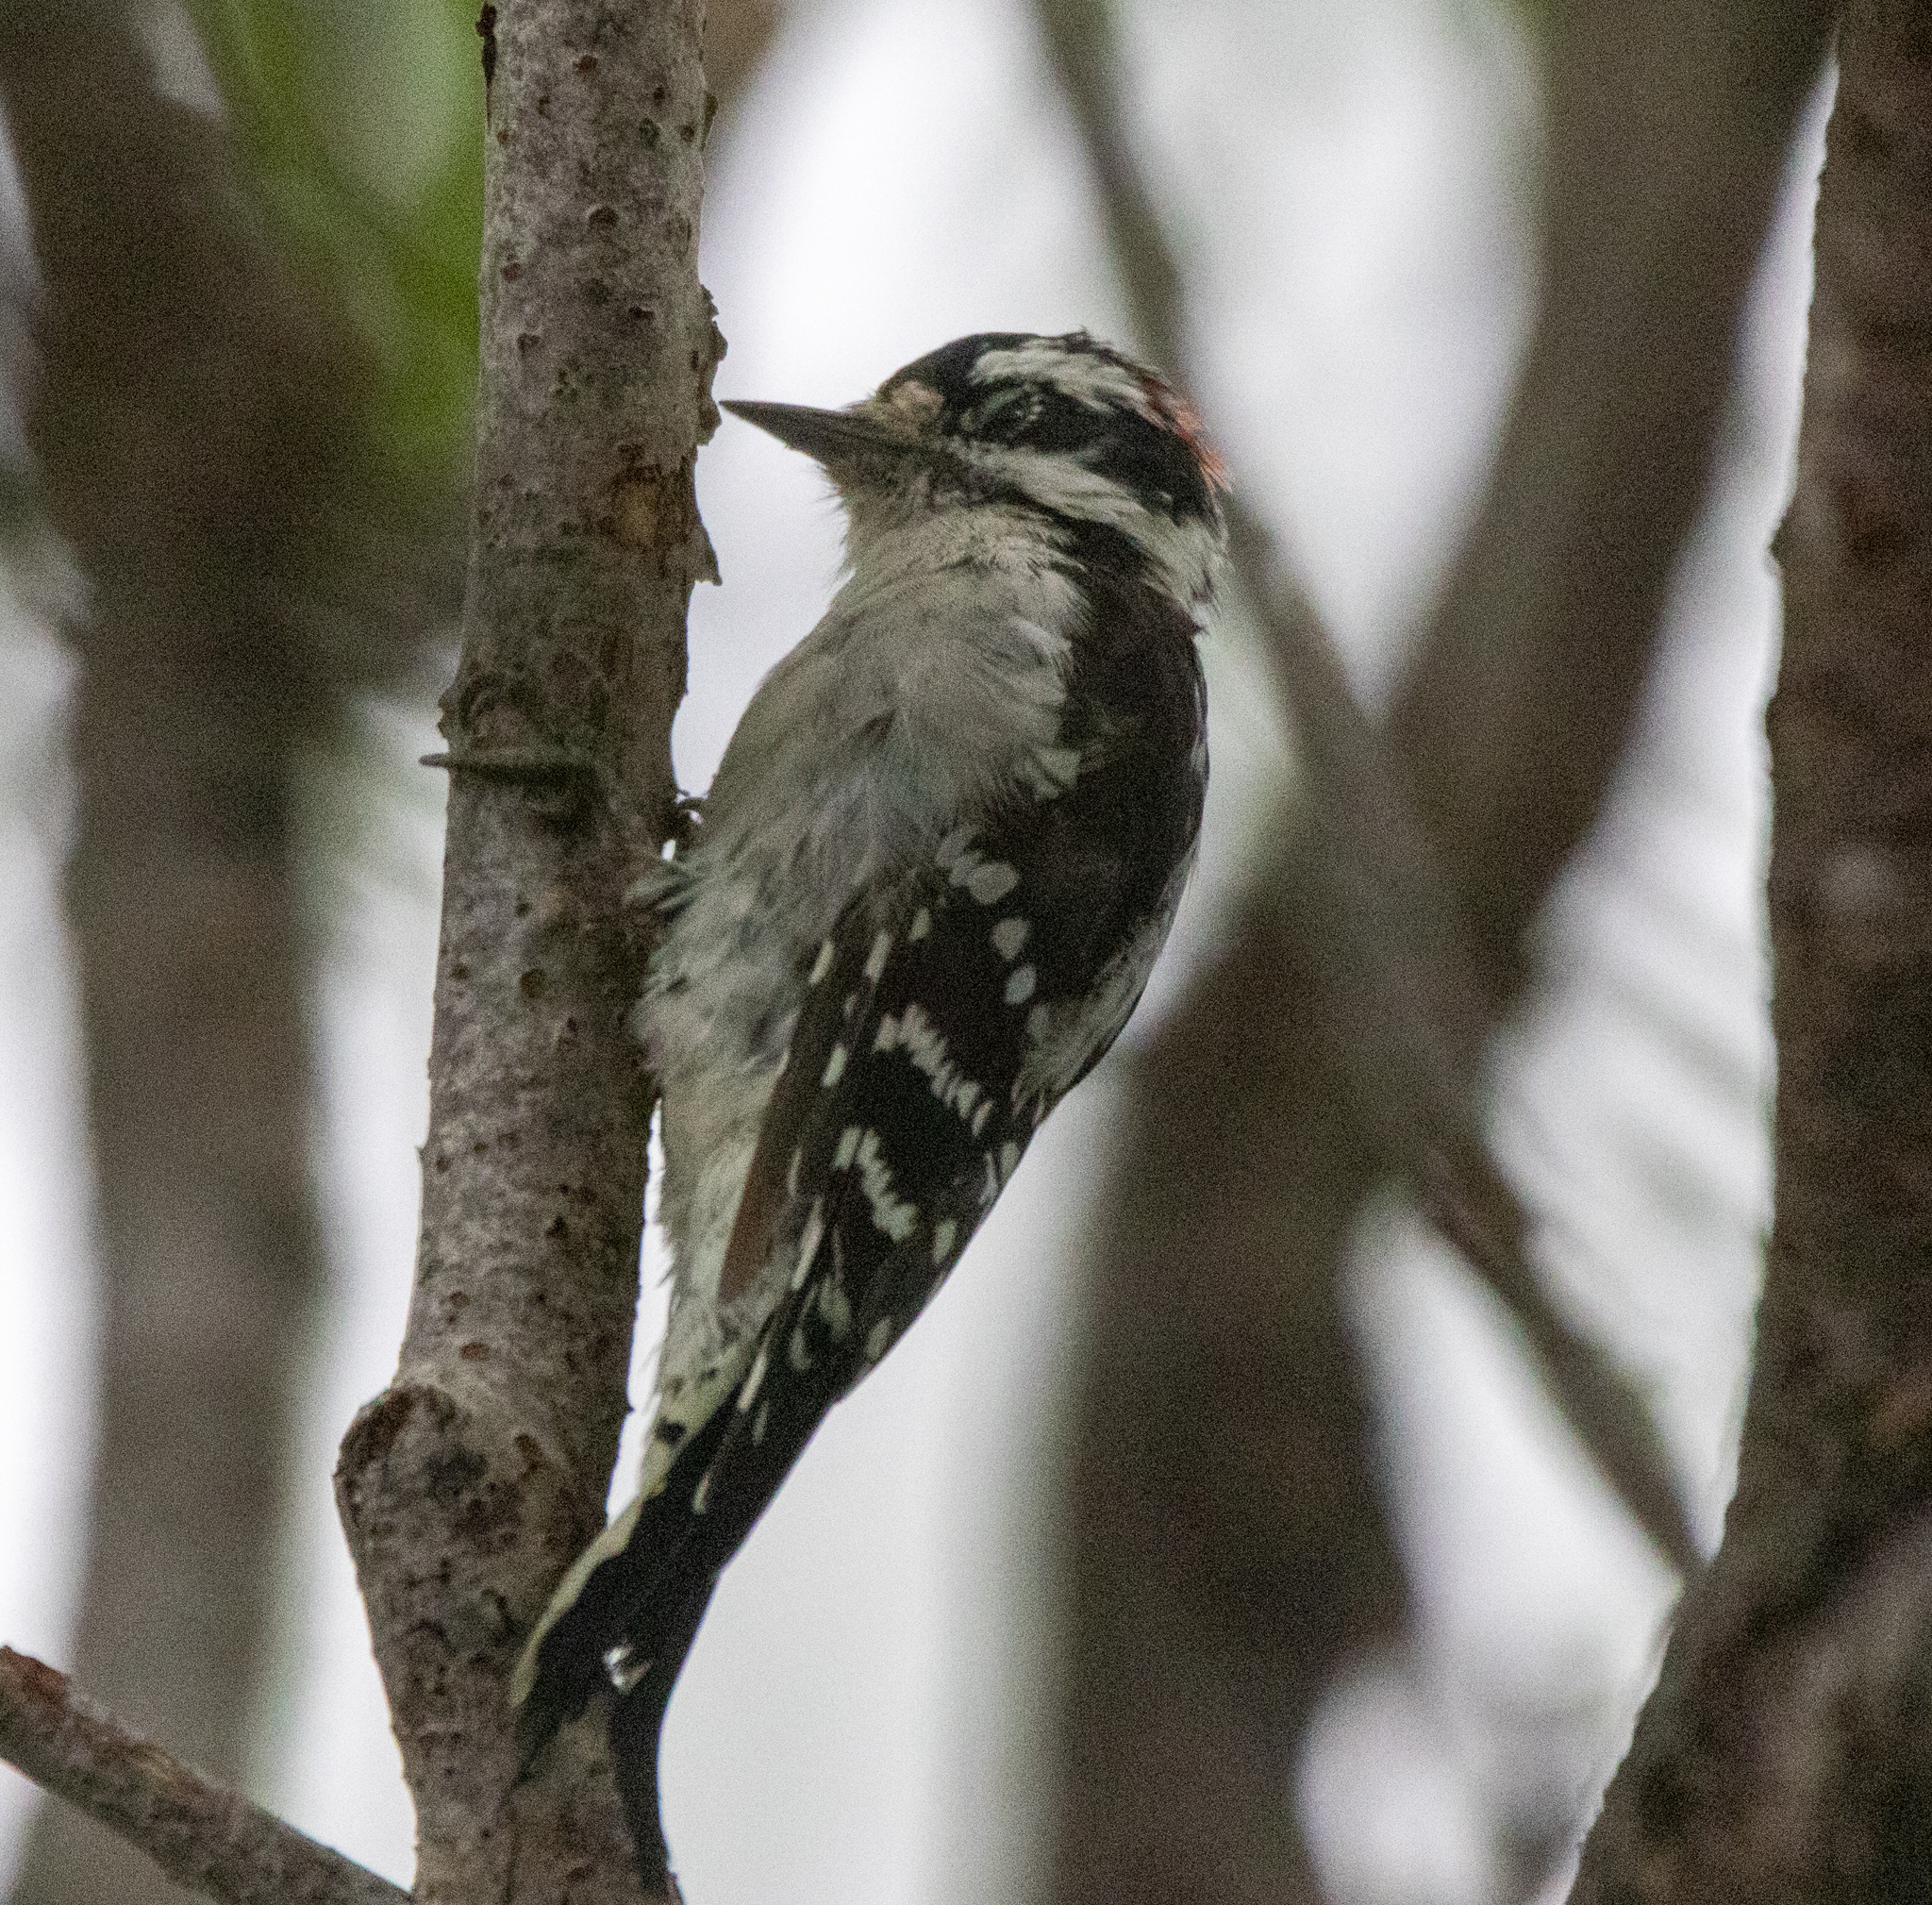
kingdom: Animalia
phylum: Chordata
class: Aves
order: Piciformes
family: Picidae
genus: Dryobates
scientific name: Dryobates pubescens
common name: Downy woodpecker
